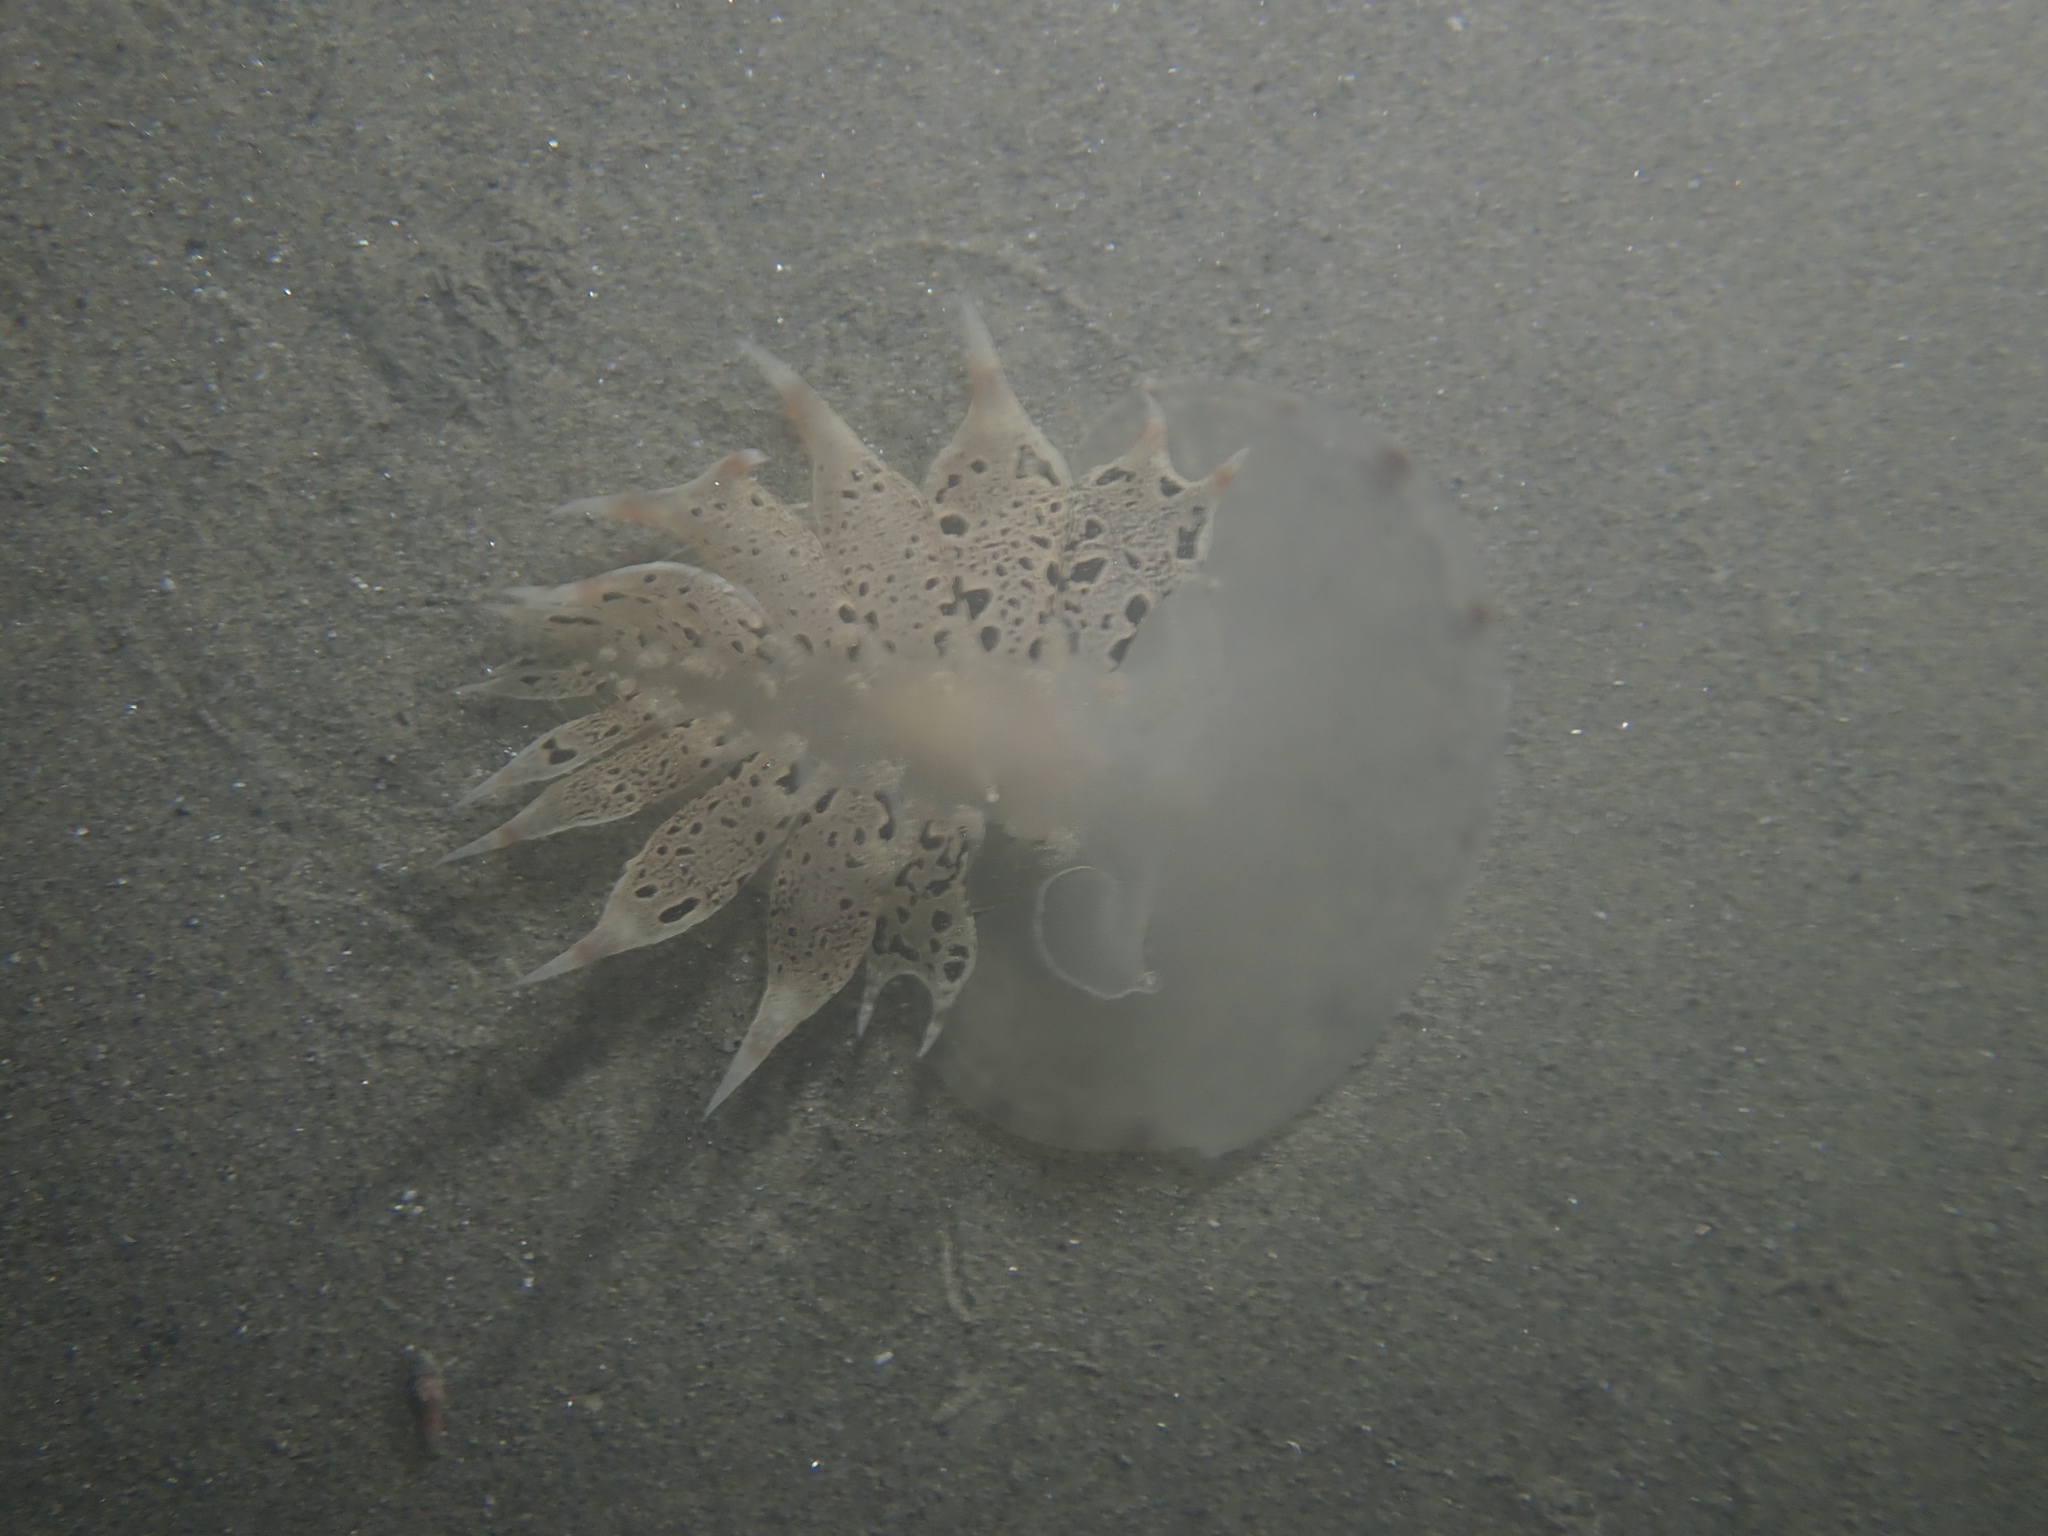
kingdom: Animalia
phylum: Mollusca
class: Gastropoda
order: Nudibranchia
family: Tethydidae
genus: Tethys
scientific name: Tethys fimbria
